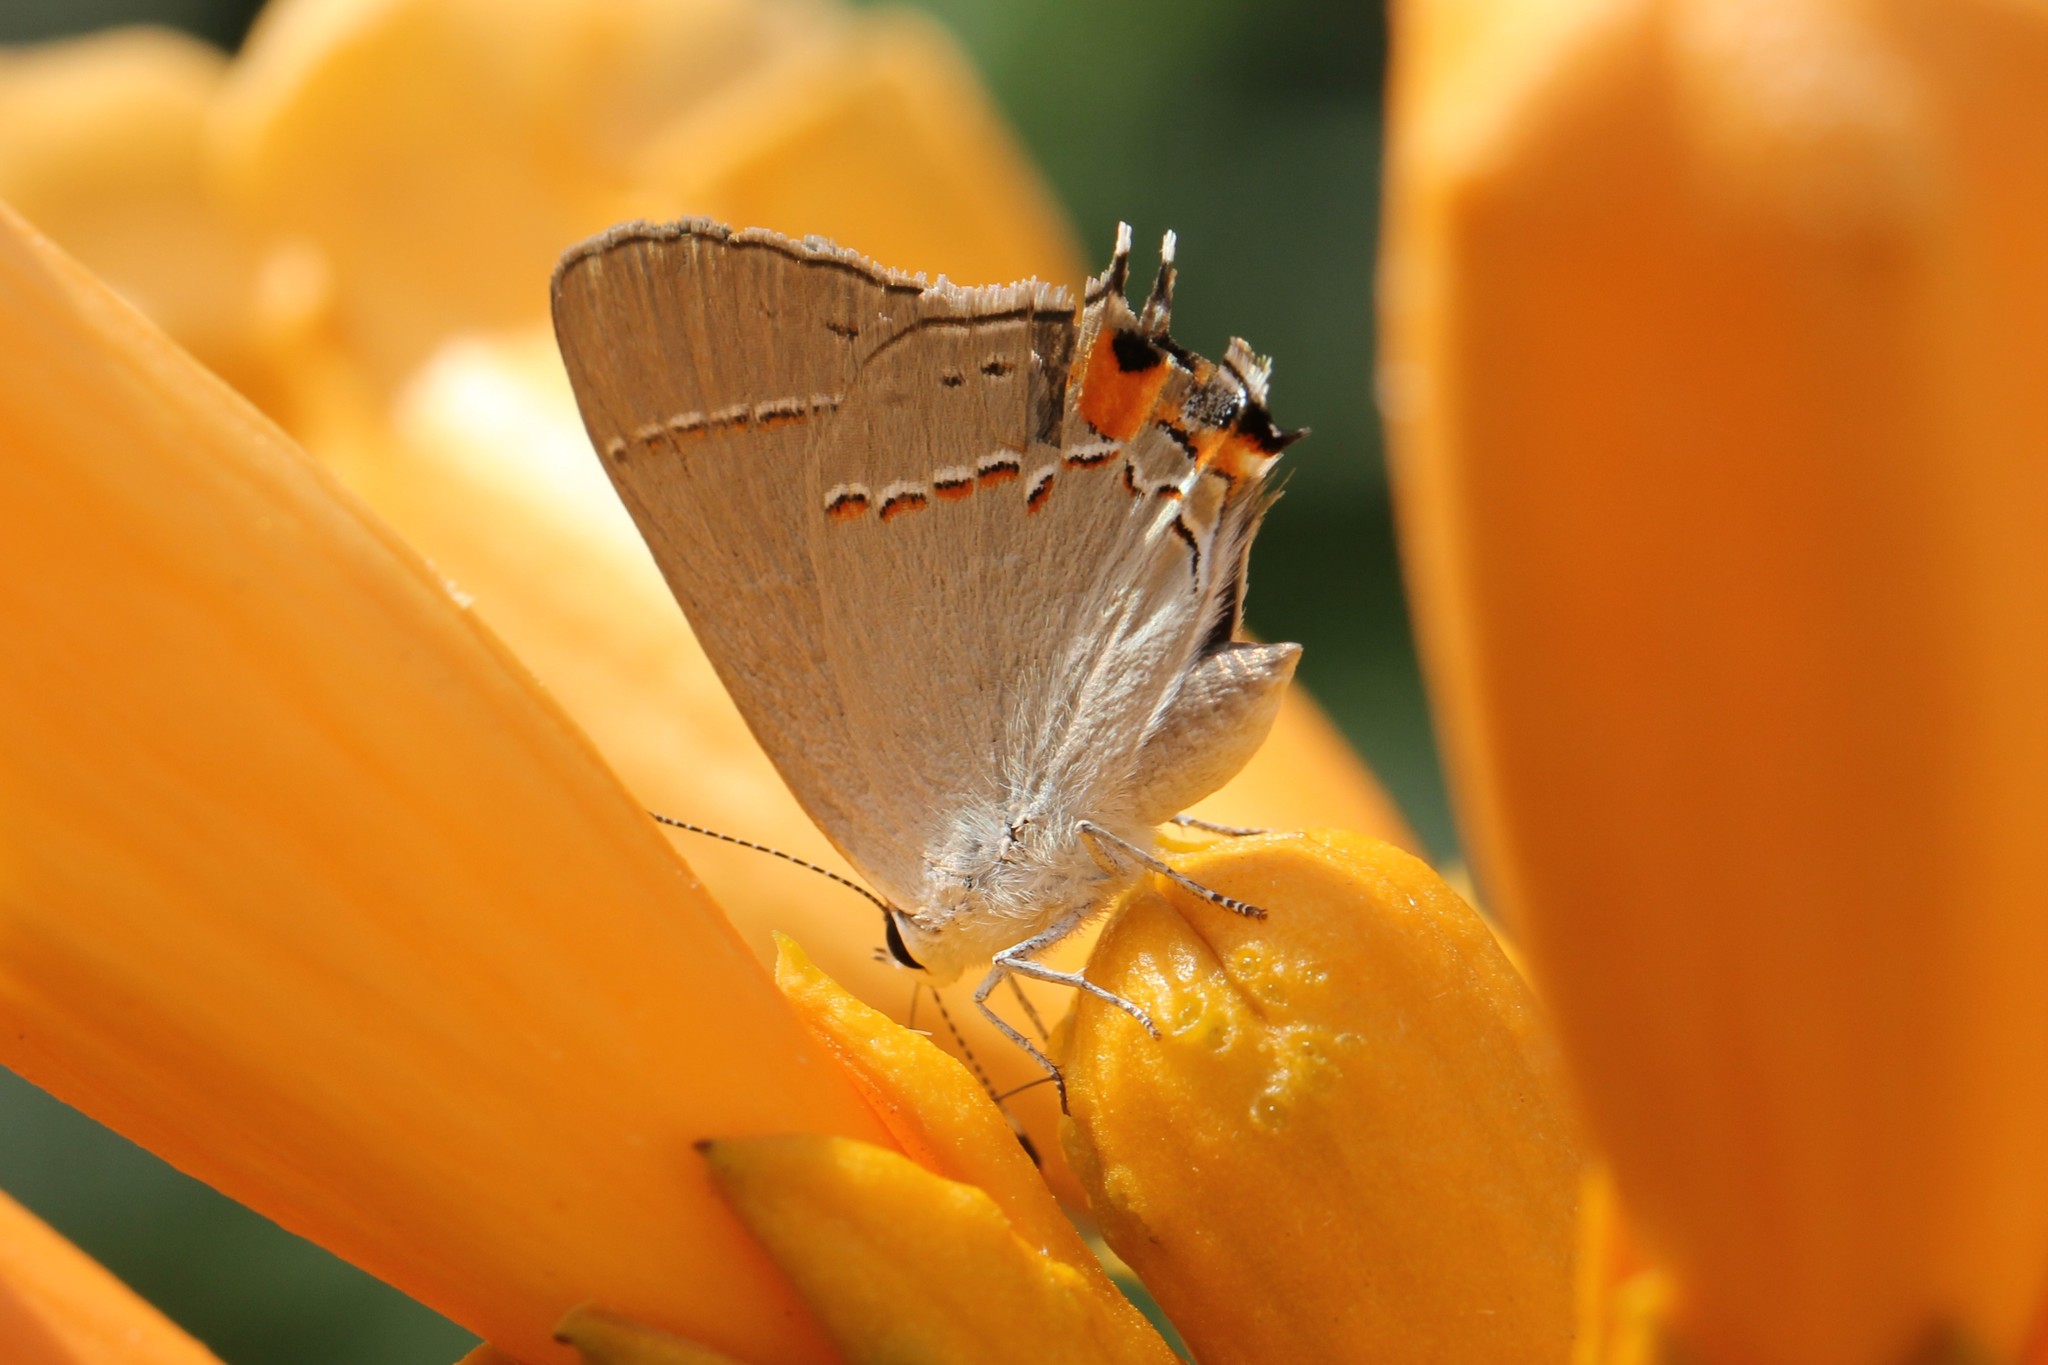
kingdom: Animalia
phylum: Arthropoda
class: Insecta
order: Lepidoptera
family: Lycaenidae
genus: Strymon
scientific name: Strymon melinus
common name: Gray hairstreak
